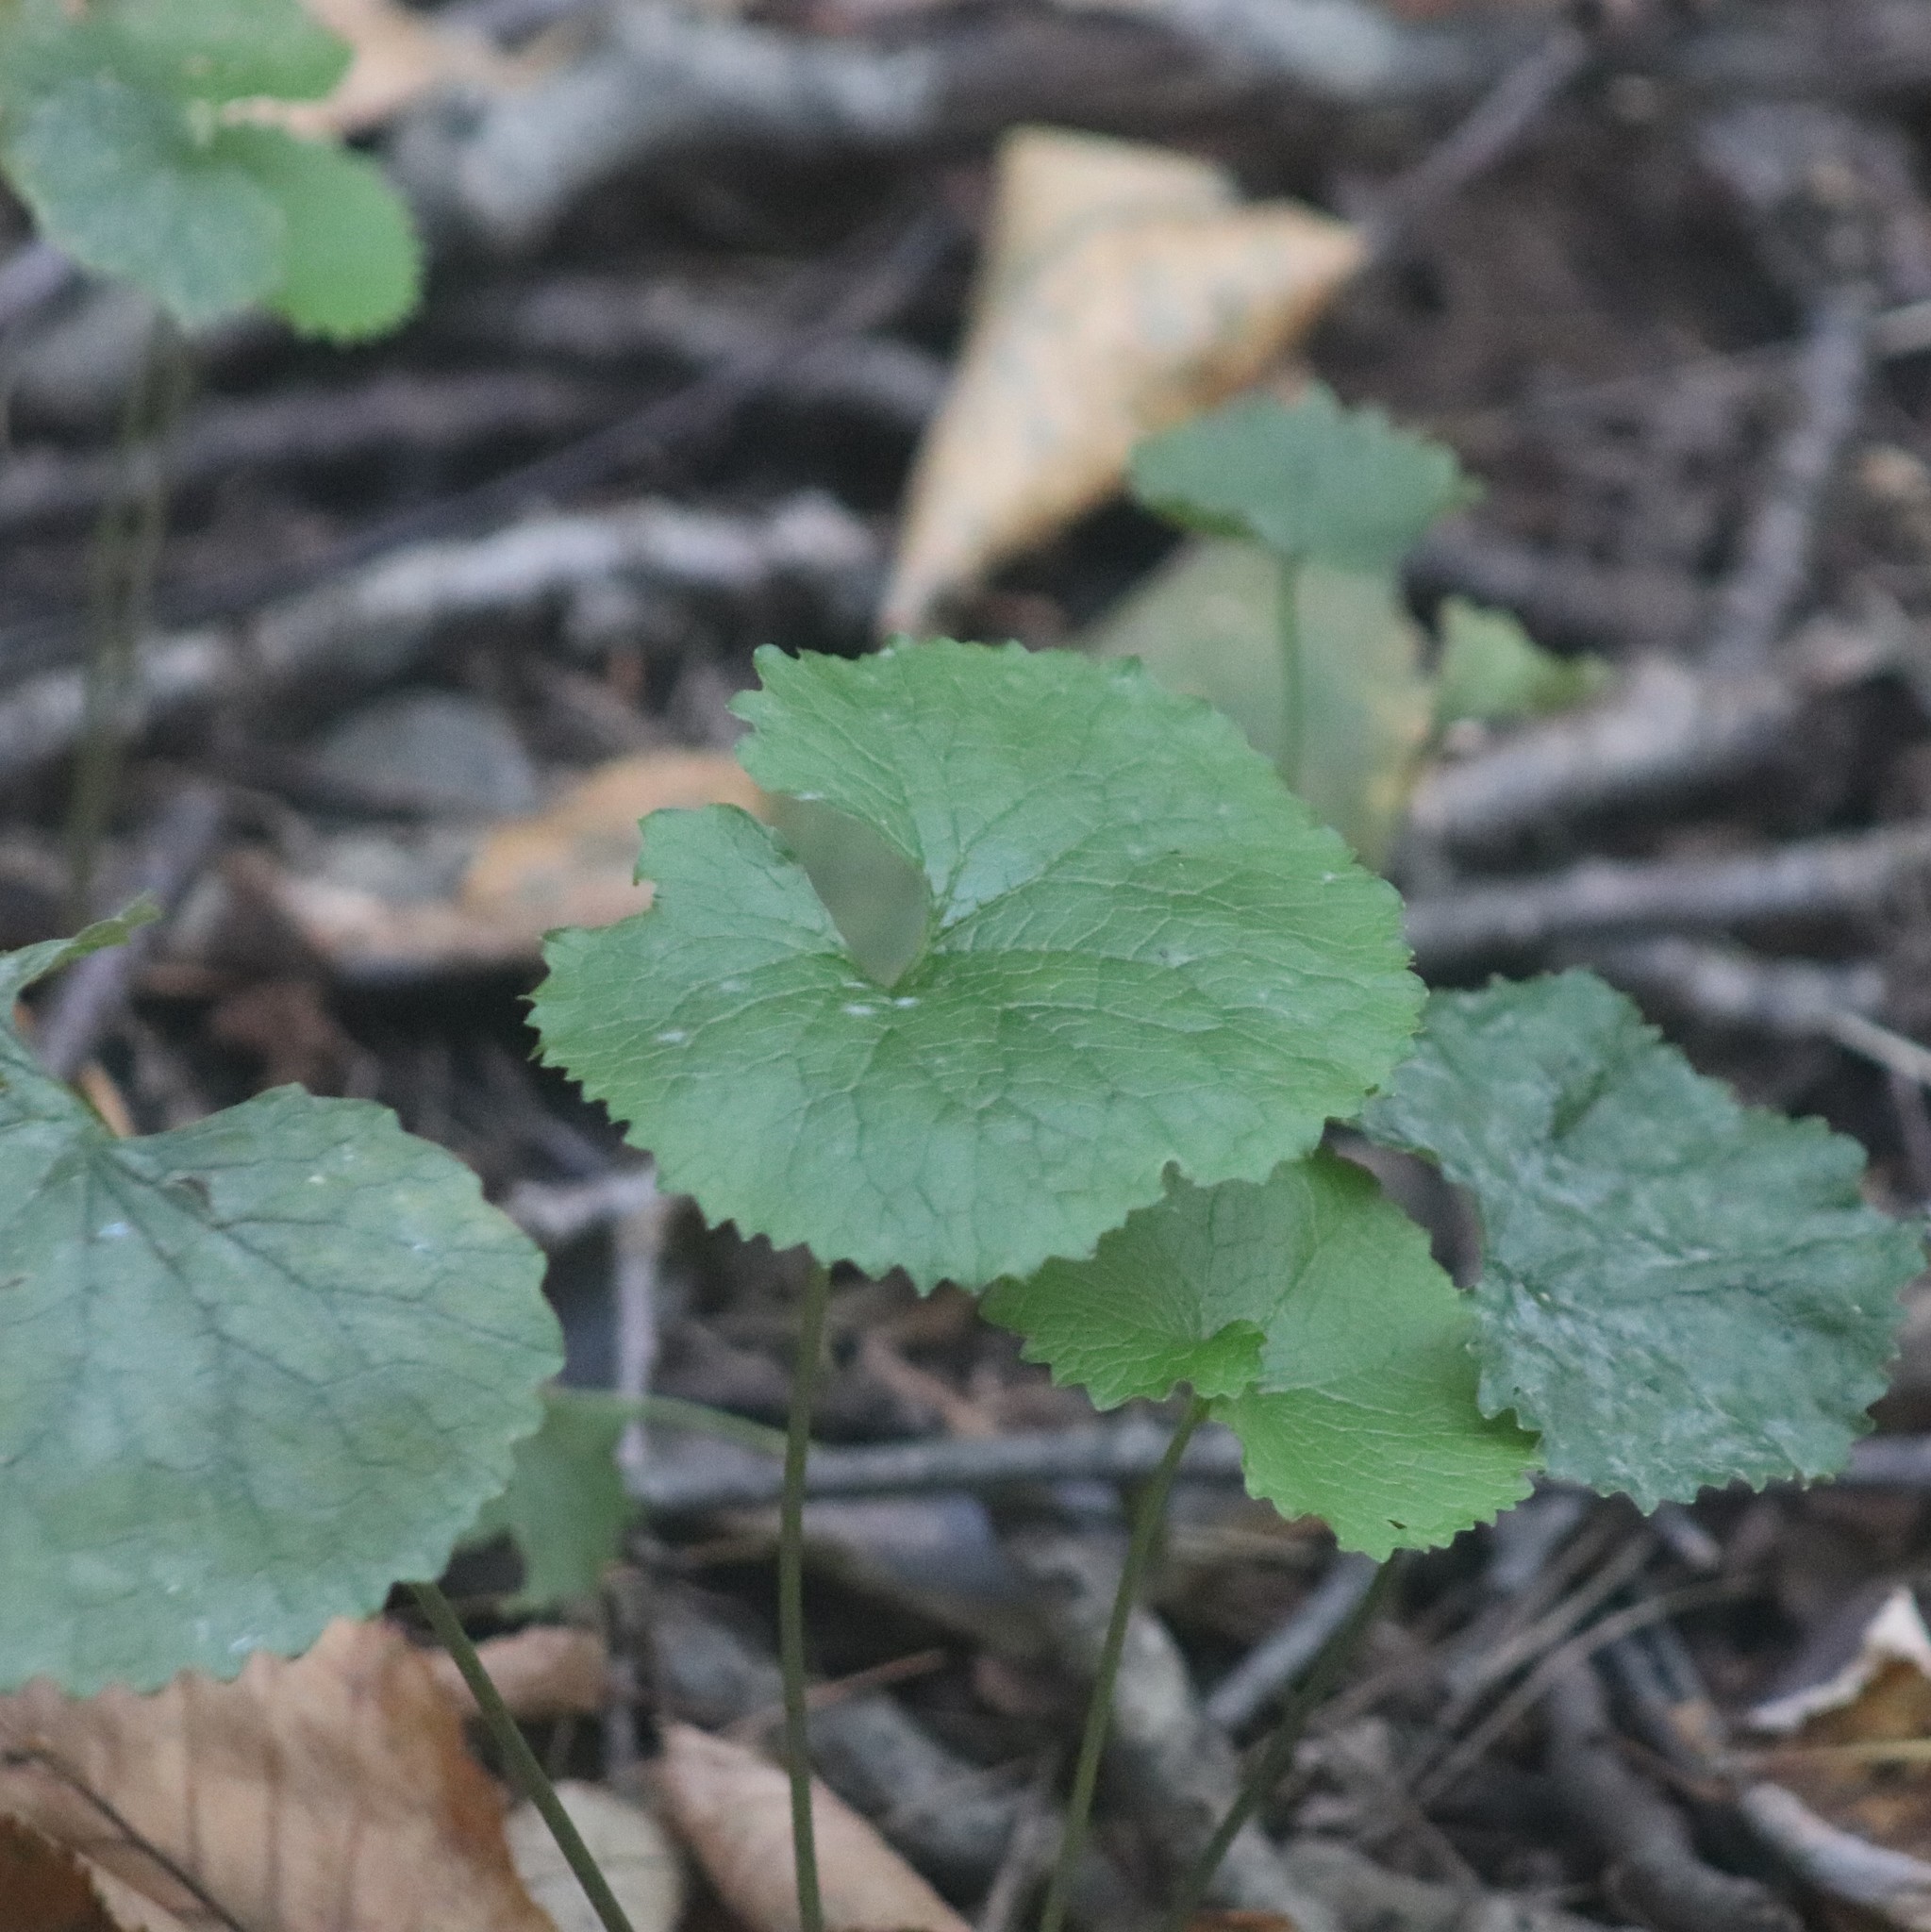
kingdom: Plantae
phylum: Tracheophyta
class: Magnoliopsida
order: Brassicales
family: Brassicaceae
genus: Alliaria
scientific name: Alliaria petiolata
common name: Garlic mustard
